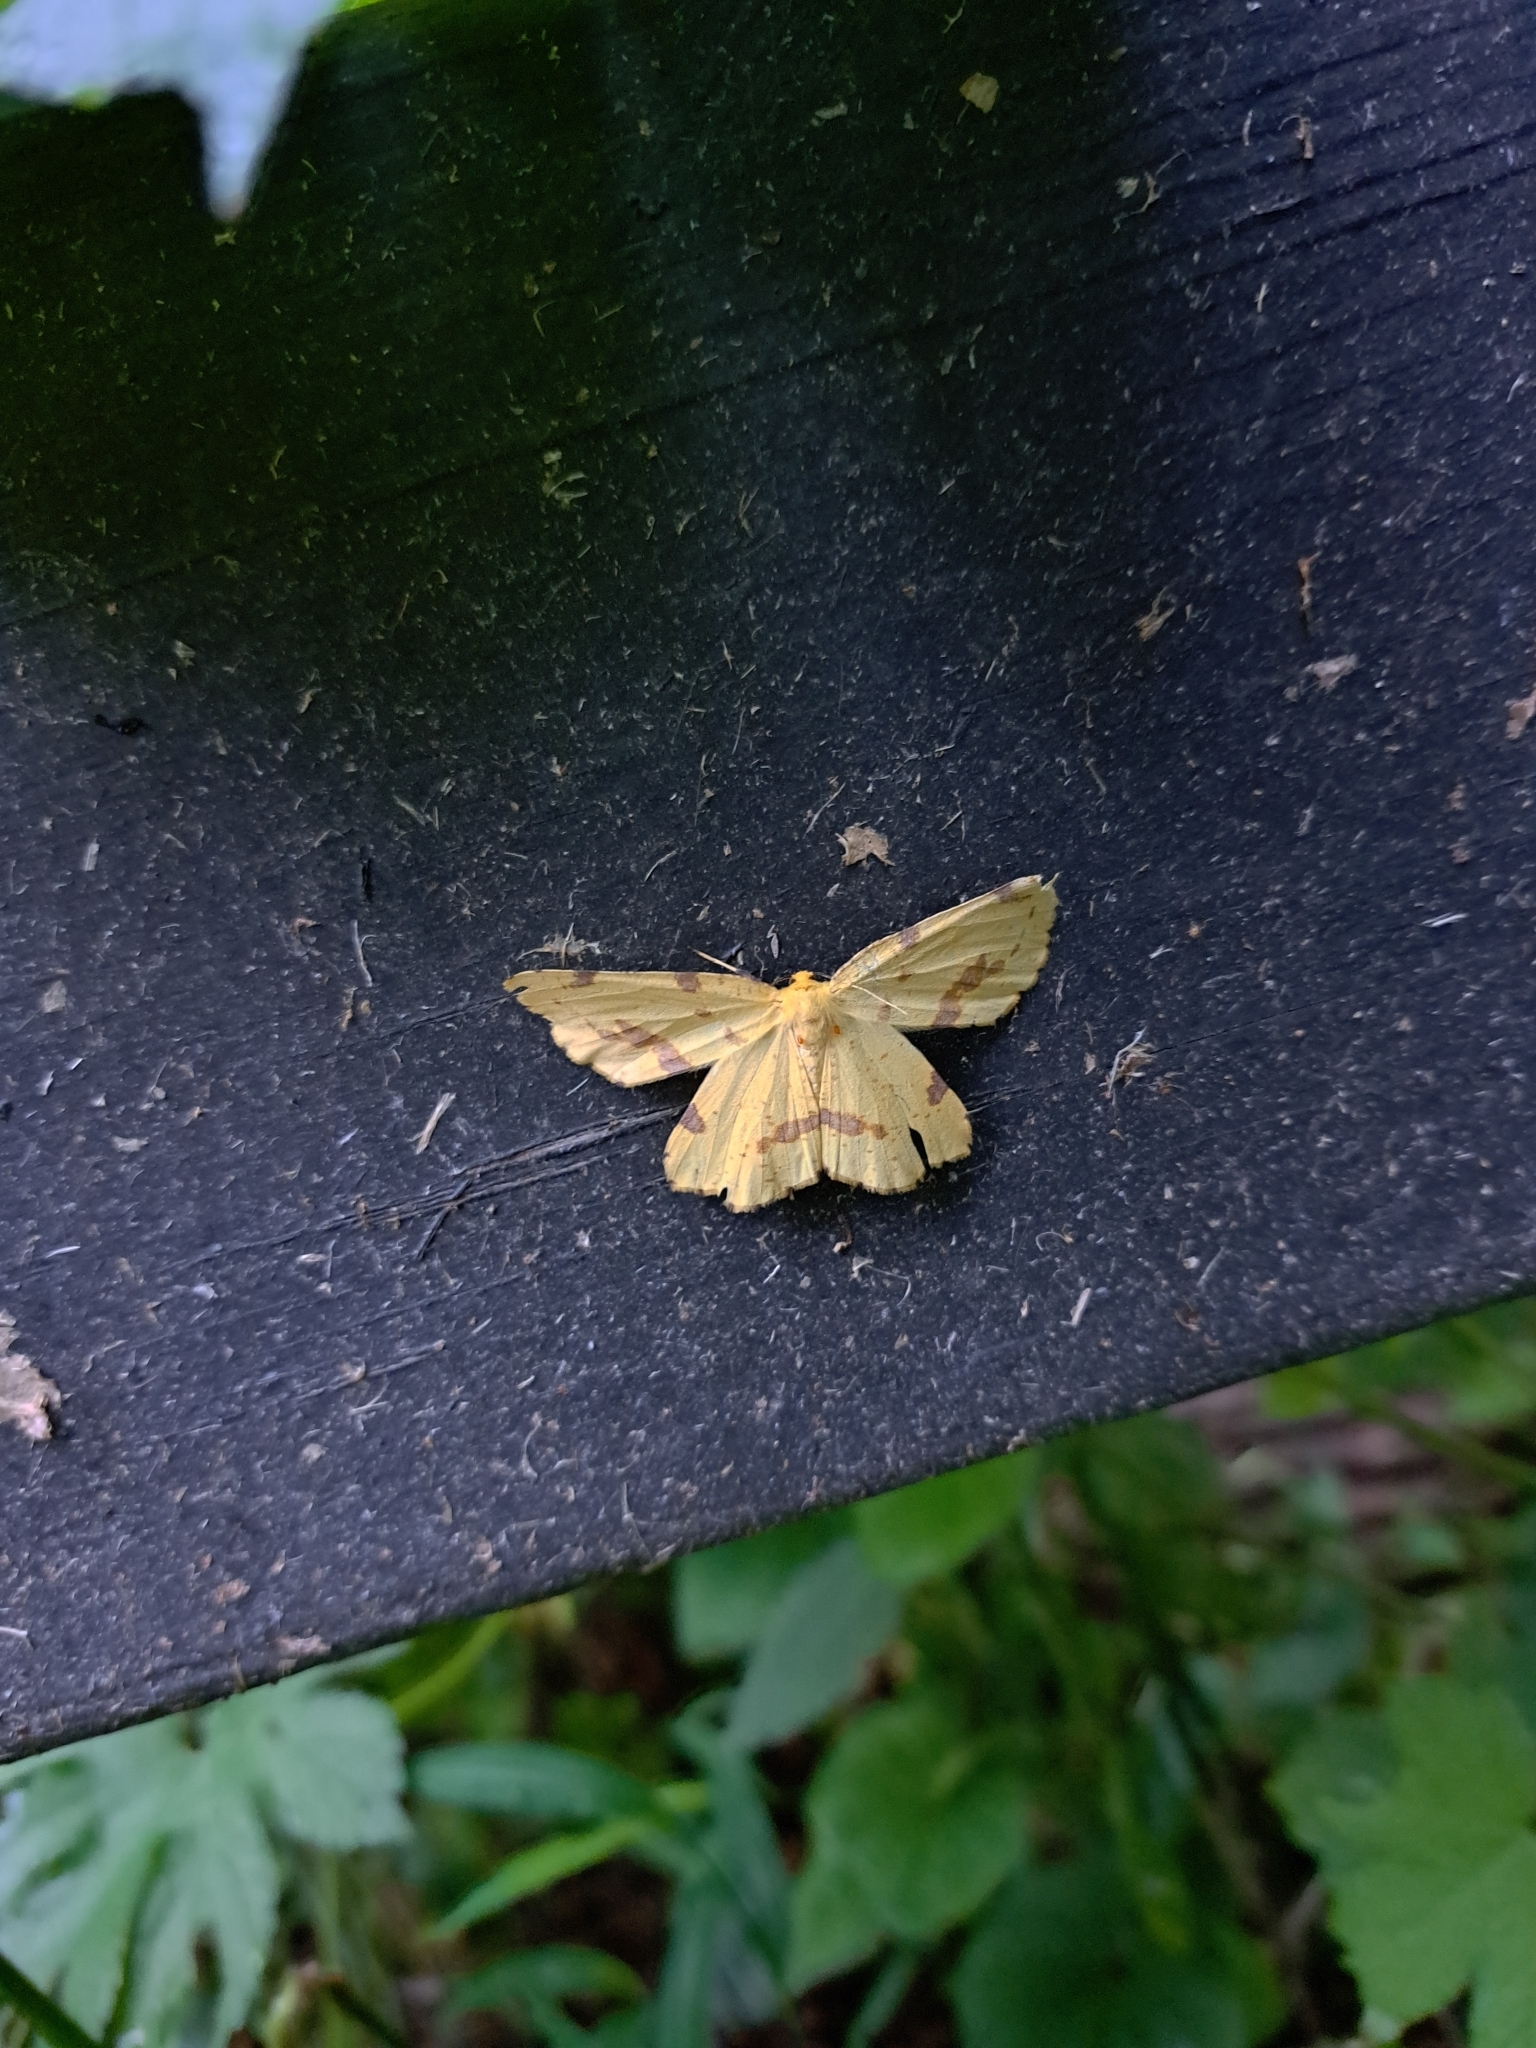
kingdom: Animalia
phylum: Arthropoda
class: Insecta
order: Lepidoptera
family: Geometridae
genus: Xanthotype
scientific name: Xanthotype
